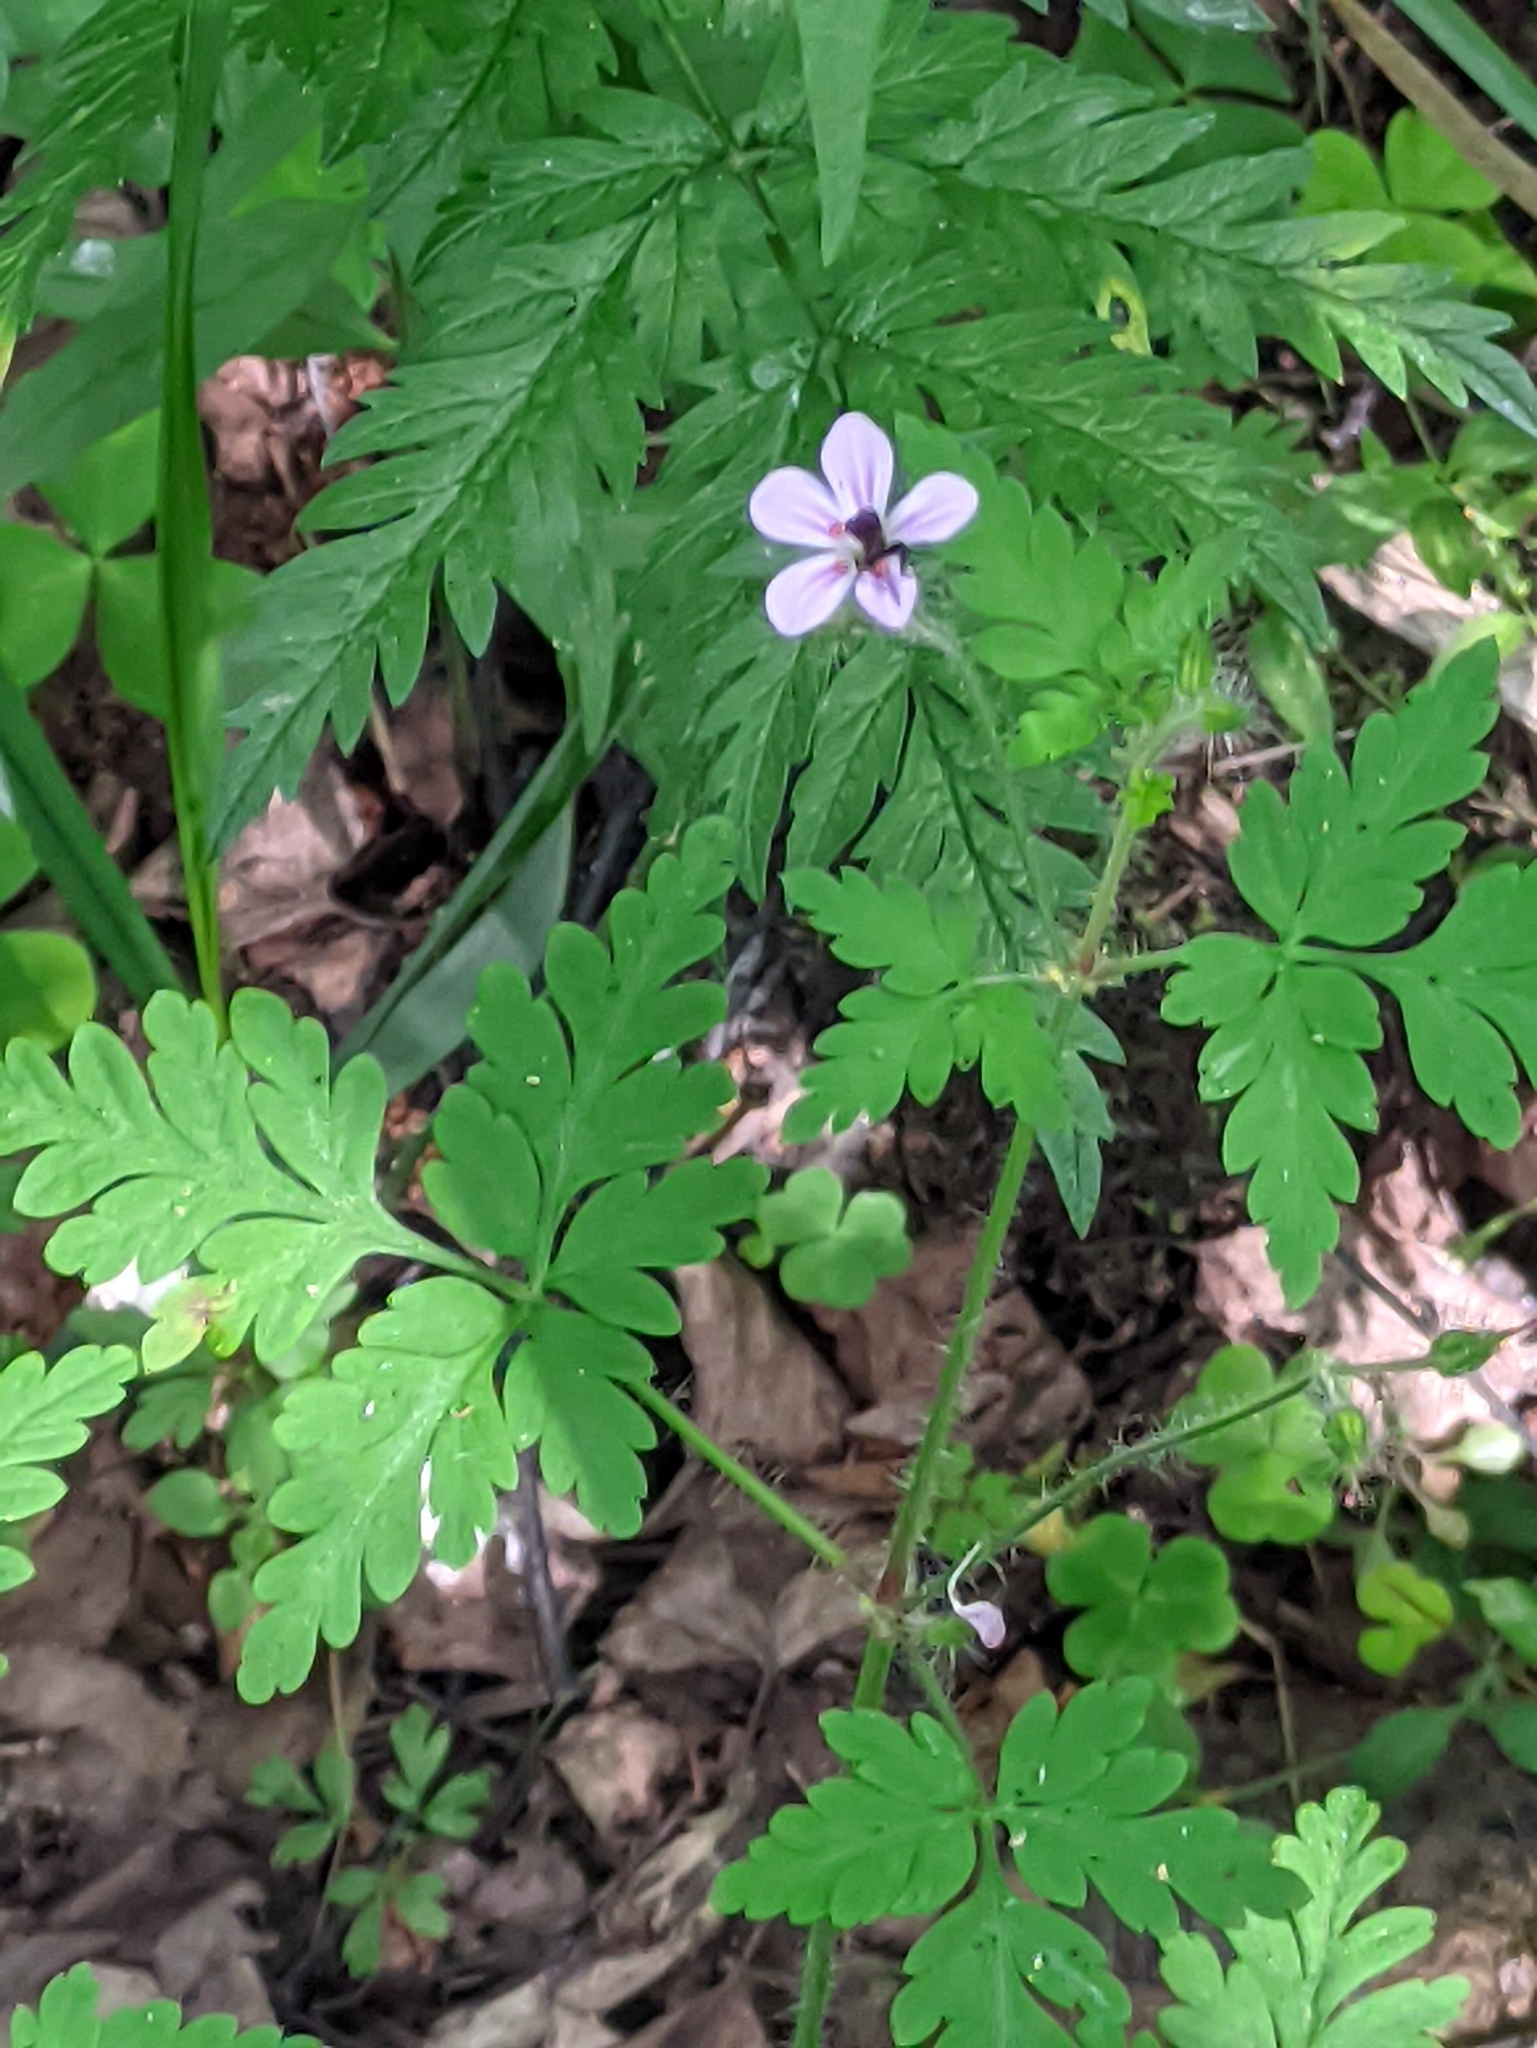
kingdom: Plantae
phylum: Tracheophyta
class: Magnoliopsida
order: Geraniales
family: Geraniaceae
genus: Geranium
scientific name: Geranium robertianum
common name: Herb-robert
